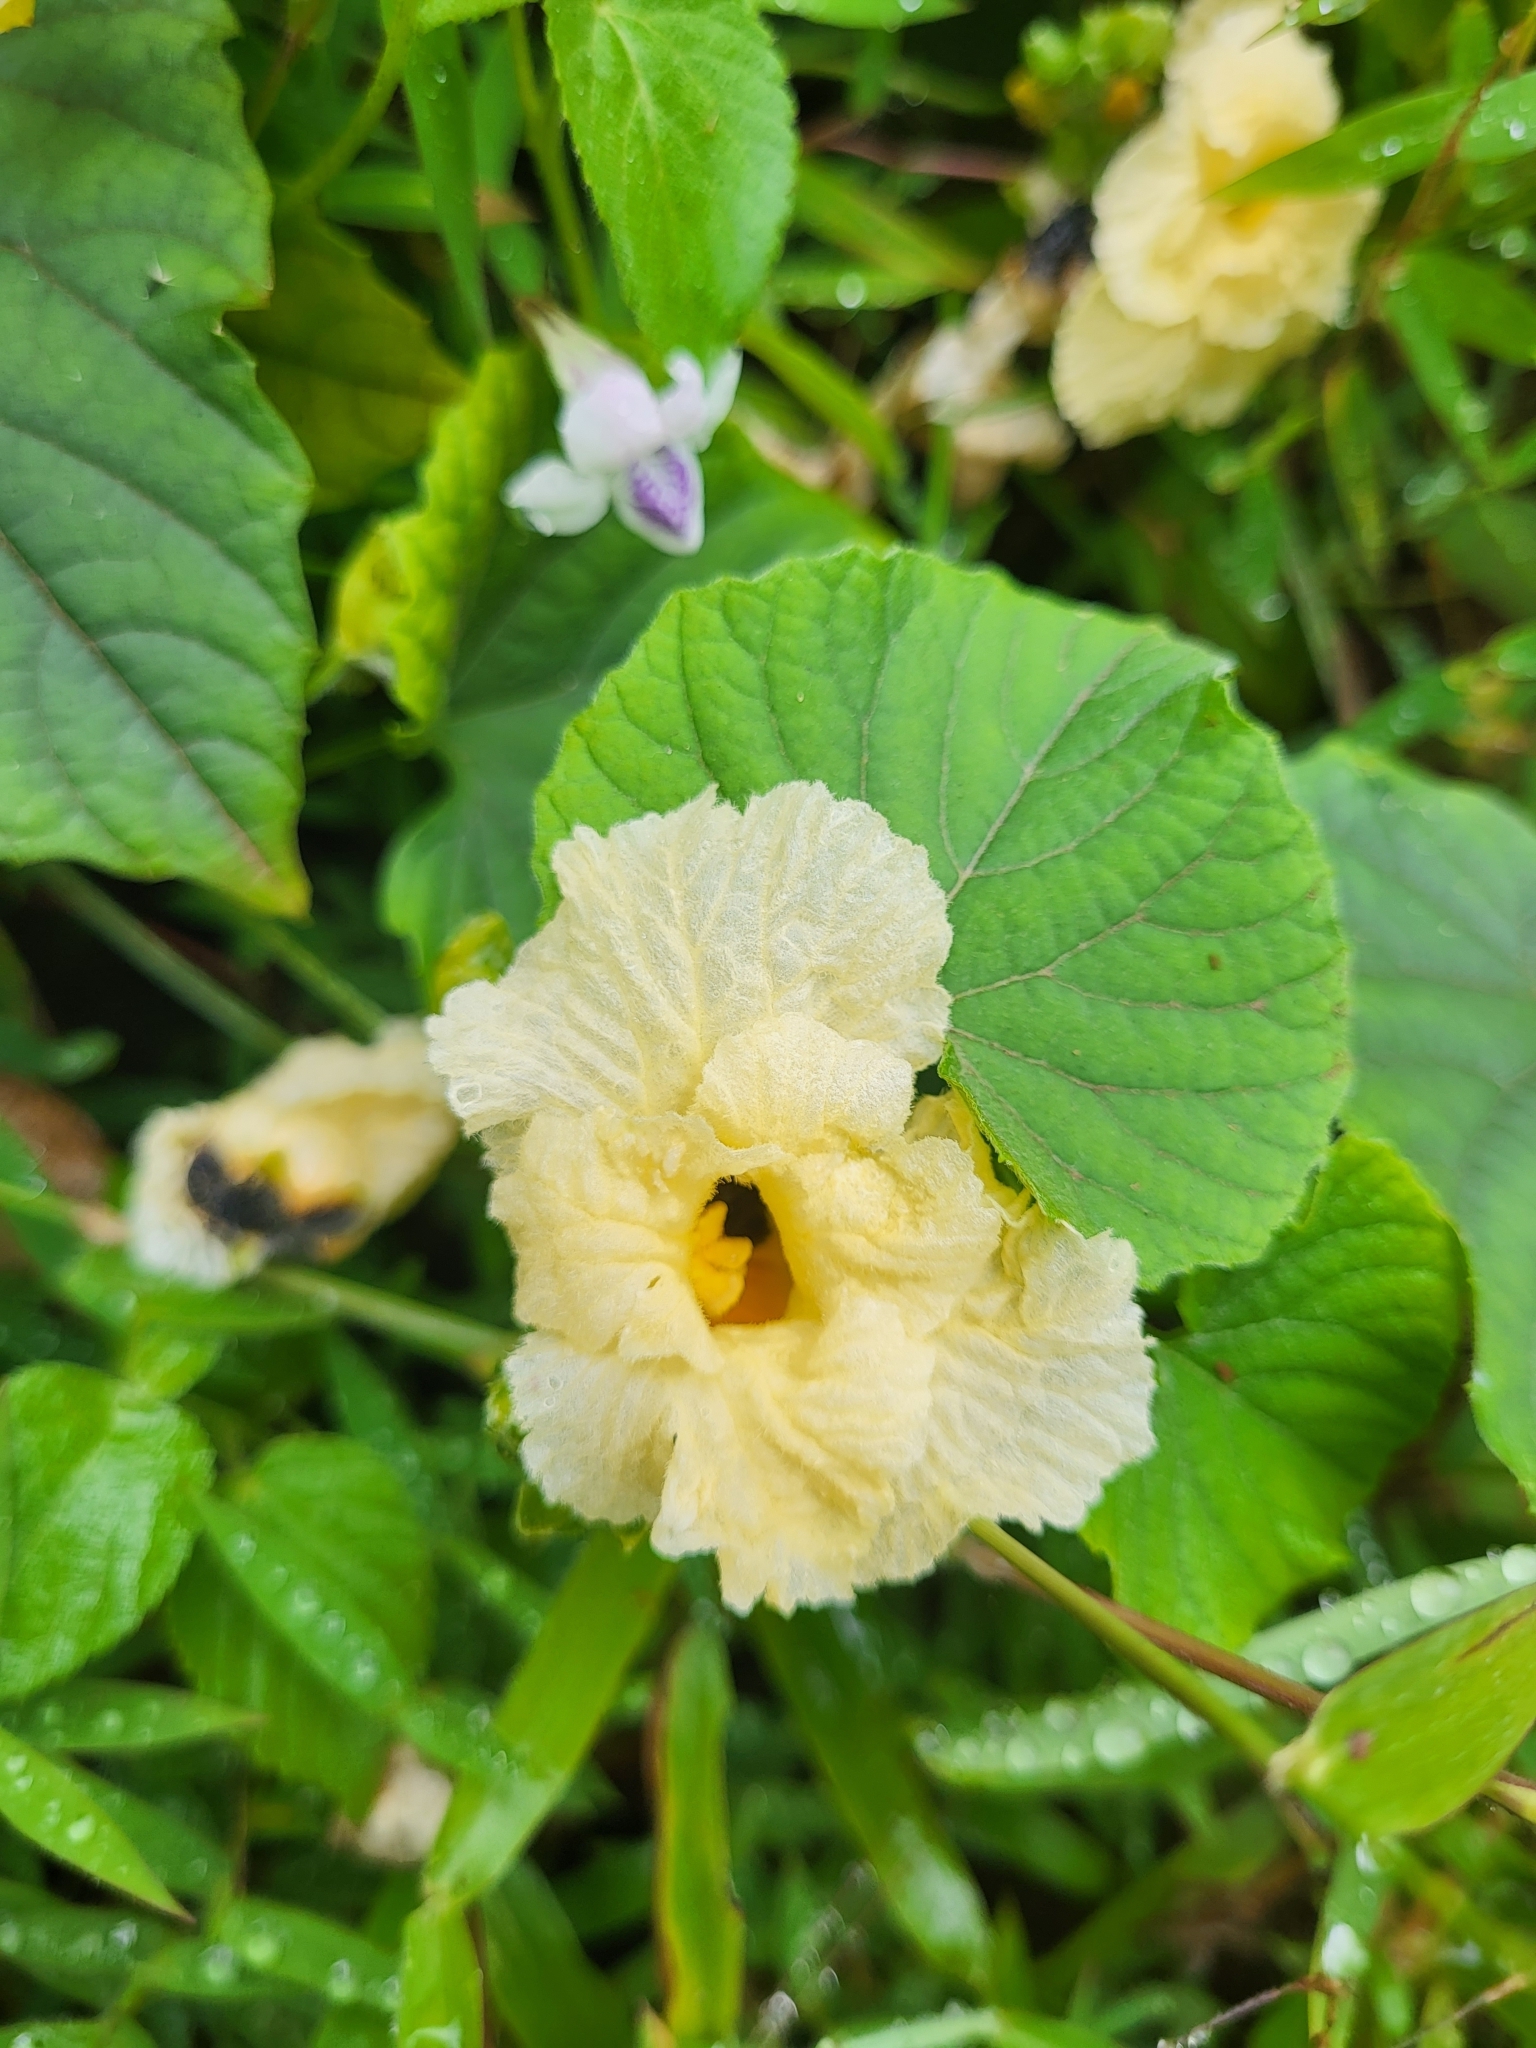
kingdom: Plantae
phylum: Tracheophyta
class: Magnoliopsida
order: Cucurbitales
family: Cucurbitaceae
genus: Momordica
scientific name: Momordica foetida
